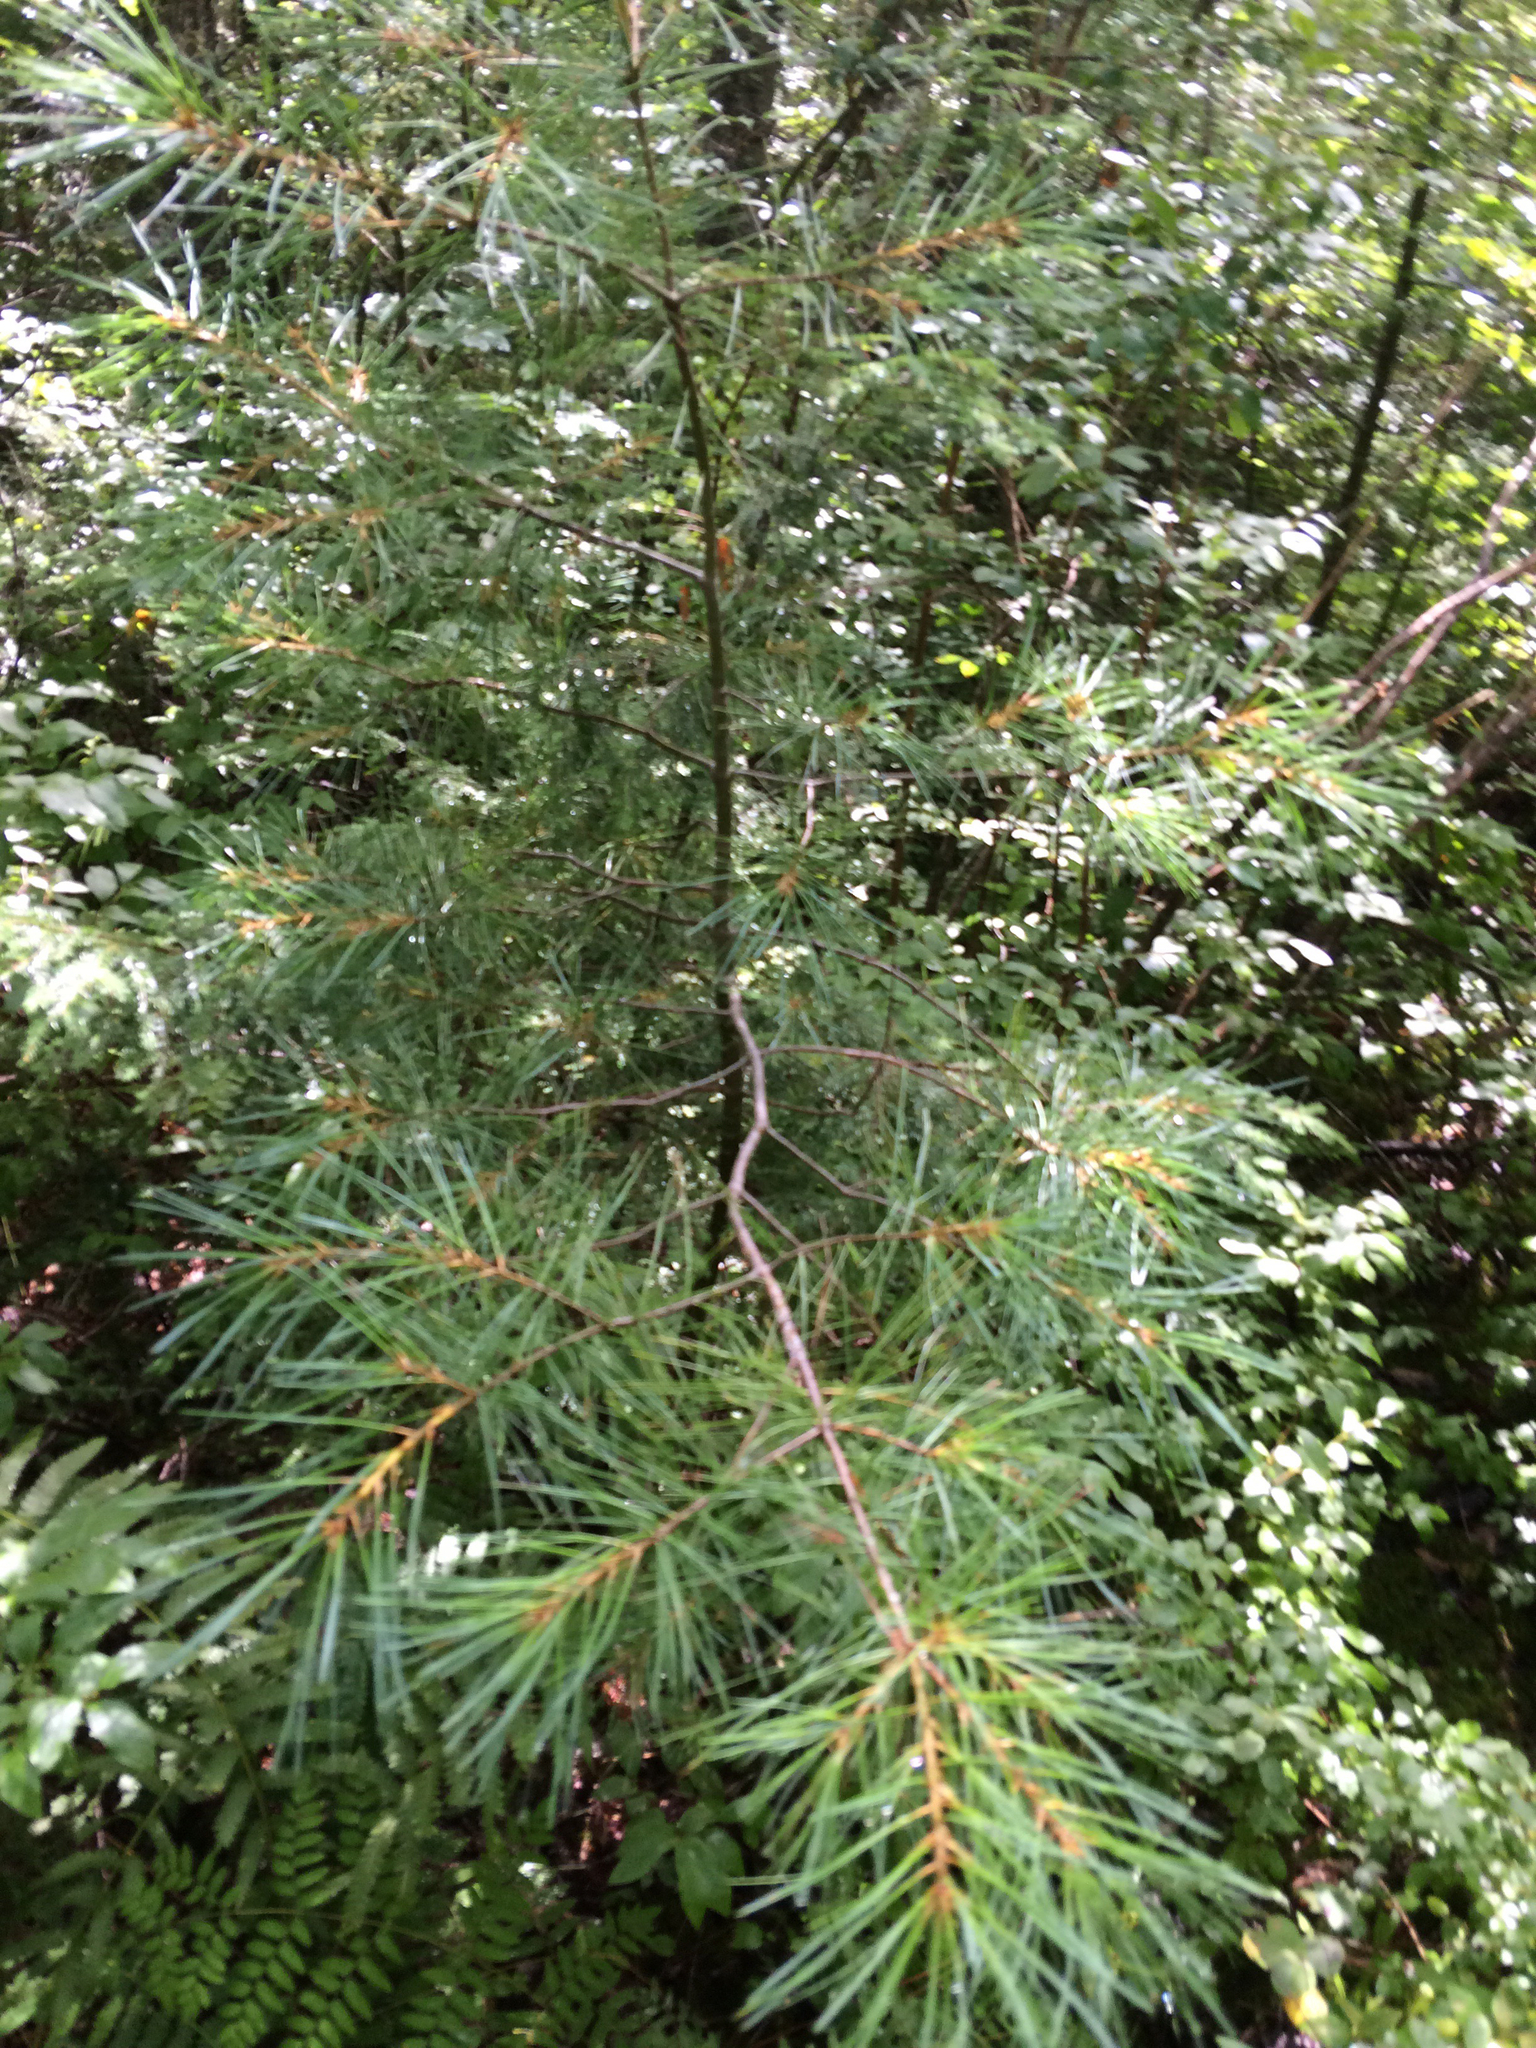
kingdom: Plantae
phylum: Tracheophyta
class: Pinopsida
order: Pinales
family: Pinaceae
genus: Pinus
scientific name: Pinus strobus
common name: Weymouth pine
